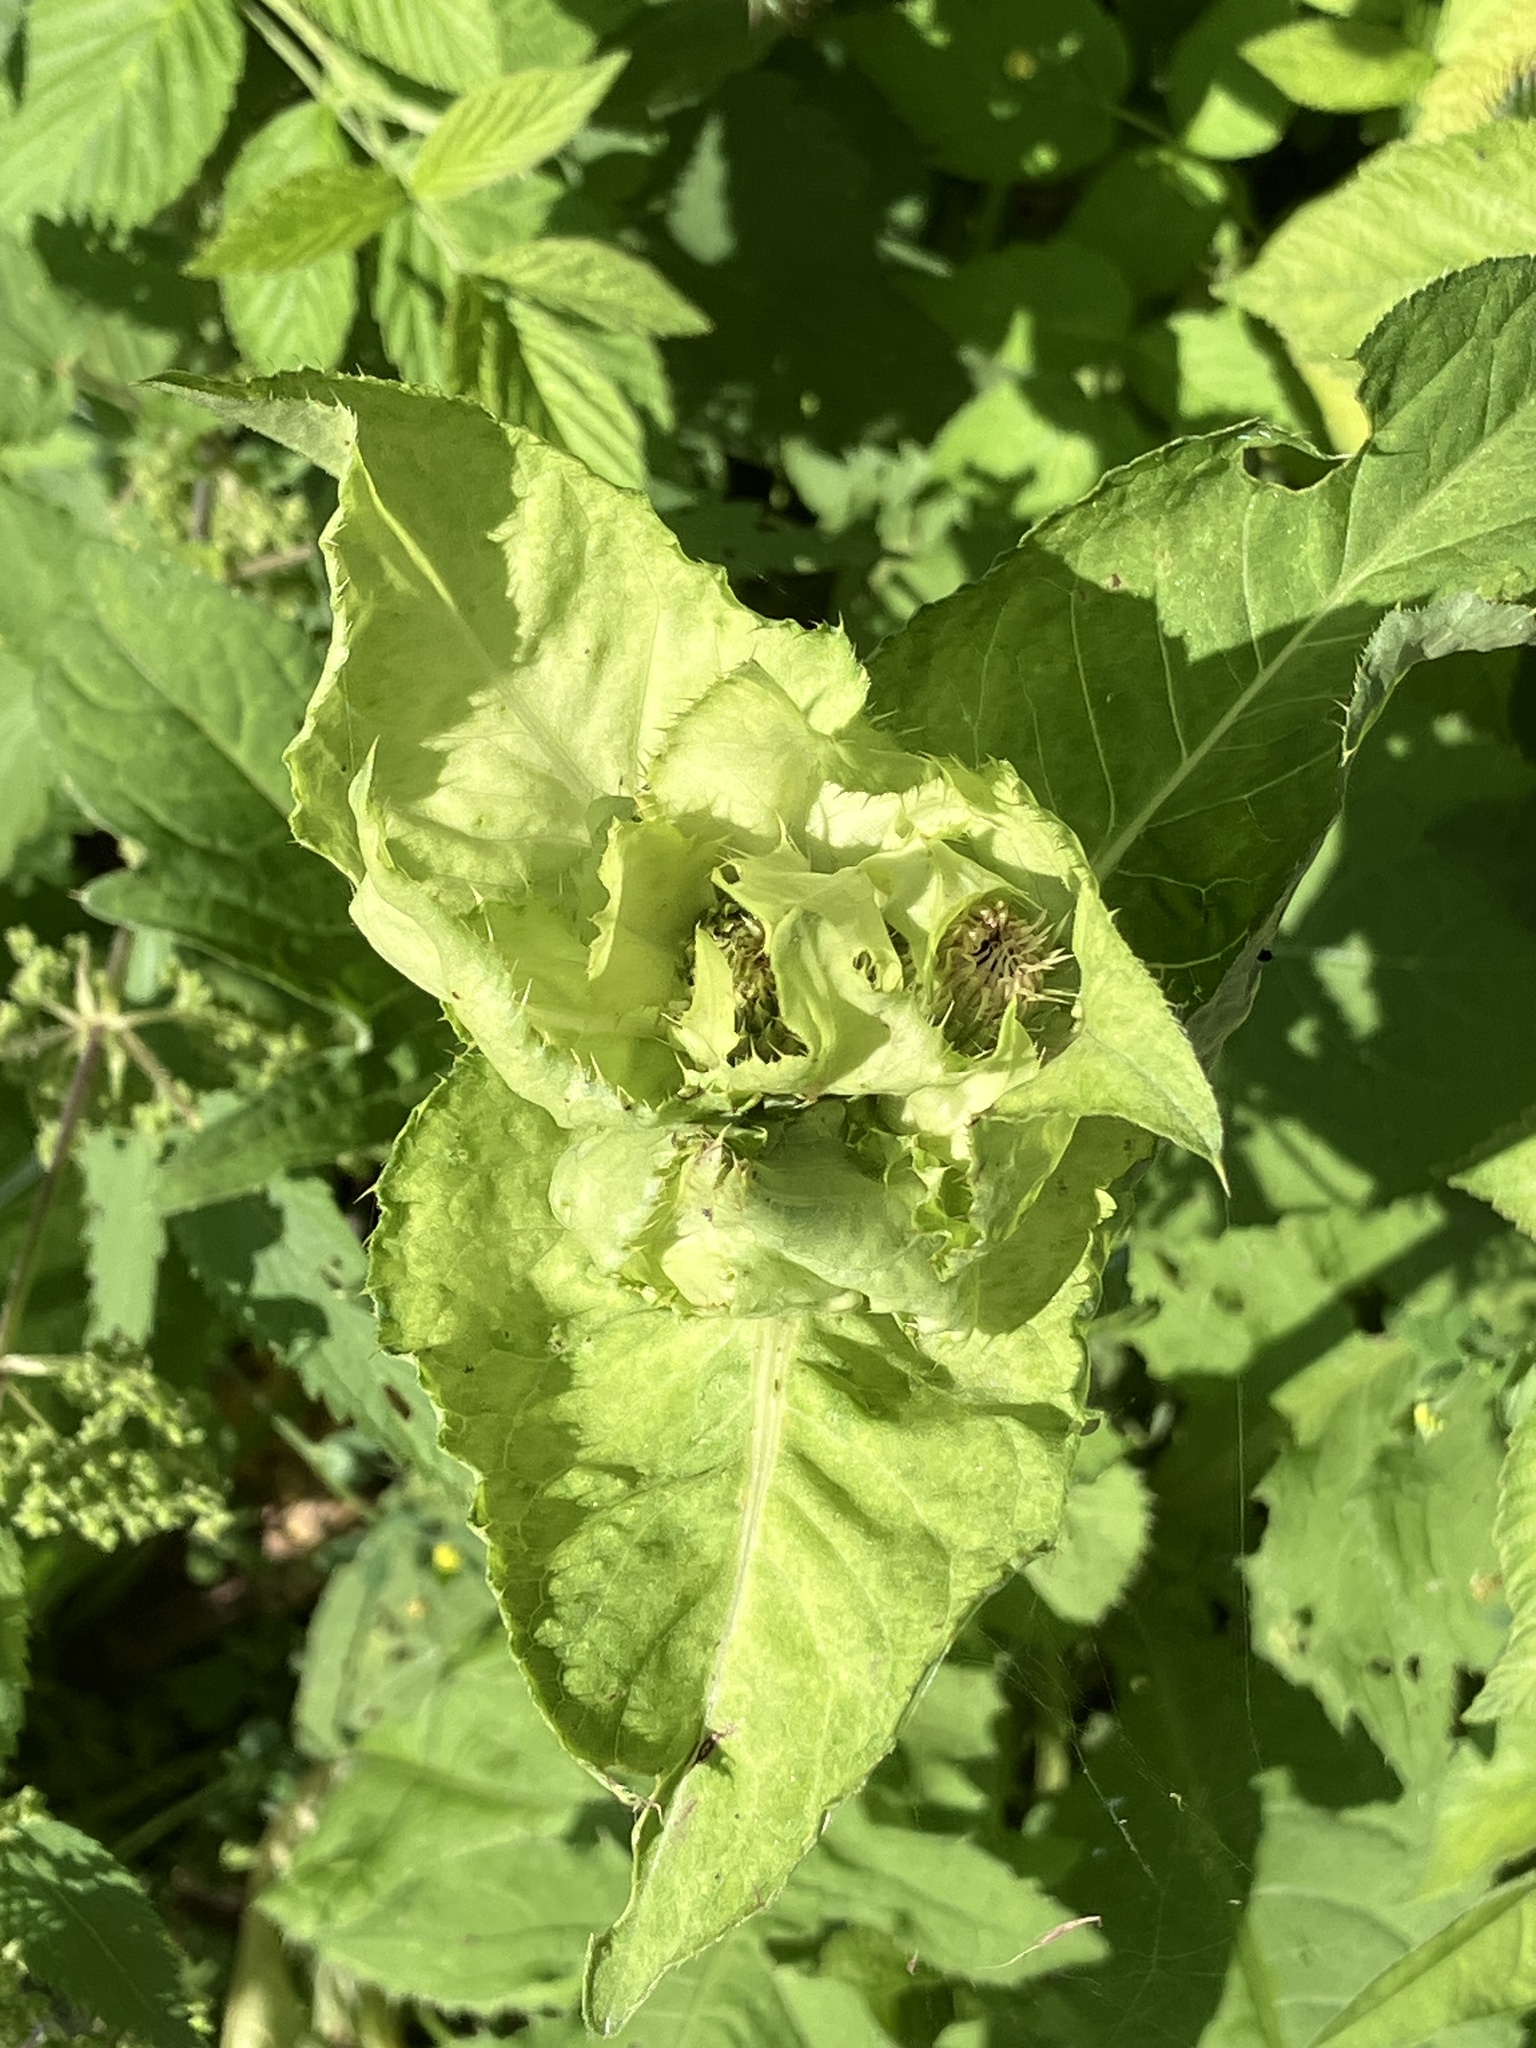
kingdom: Plantae
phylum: Tracheophyta
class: Magnoliopsida
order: Asterales
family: Asteraceae
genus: Cirsium
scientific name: Cirsium oleraceum
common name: Cabbage thistle
